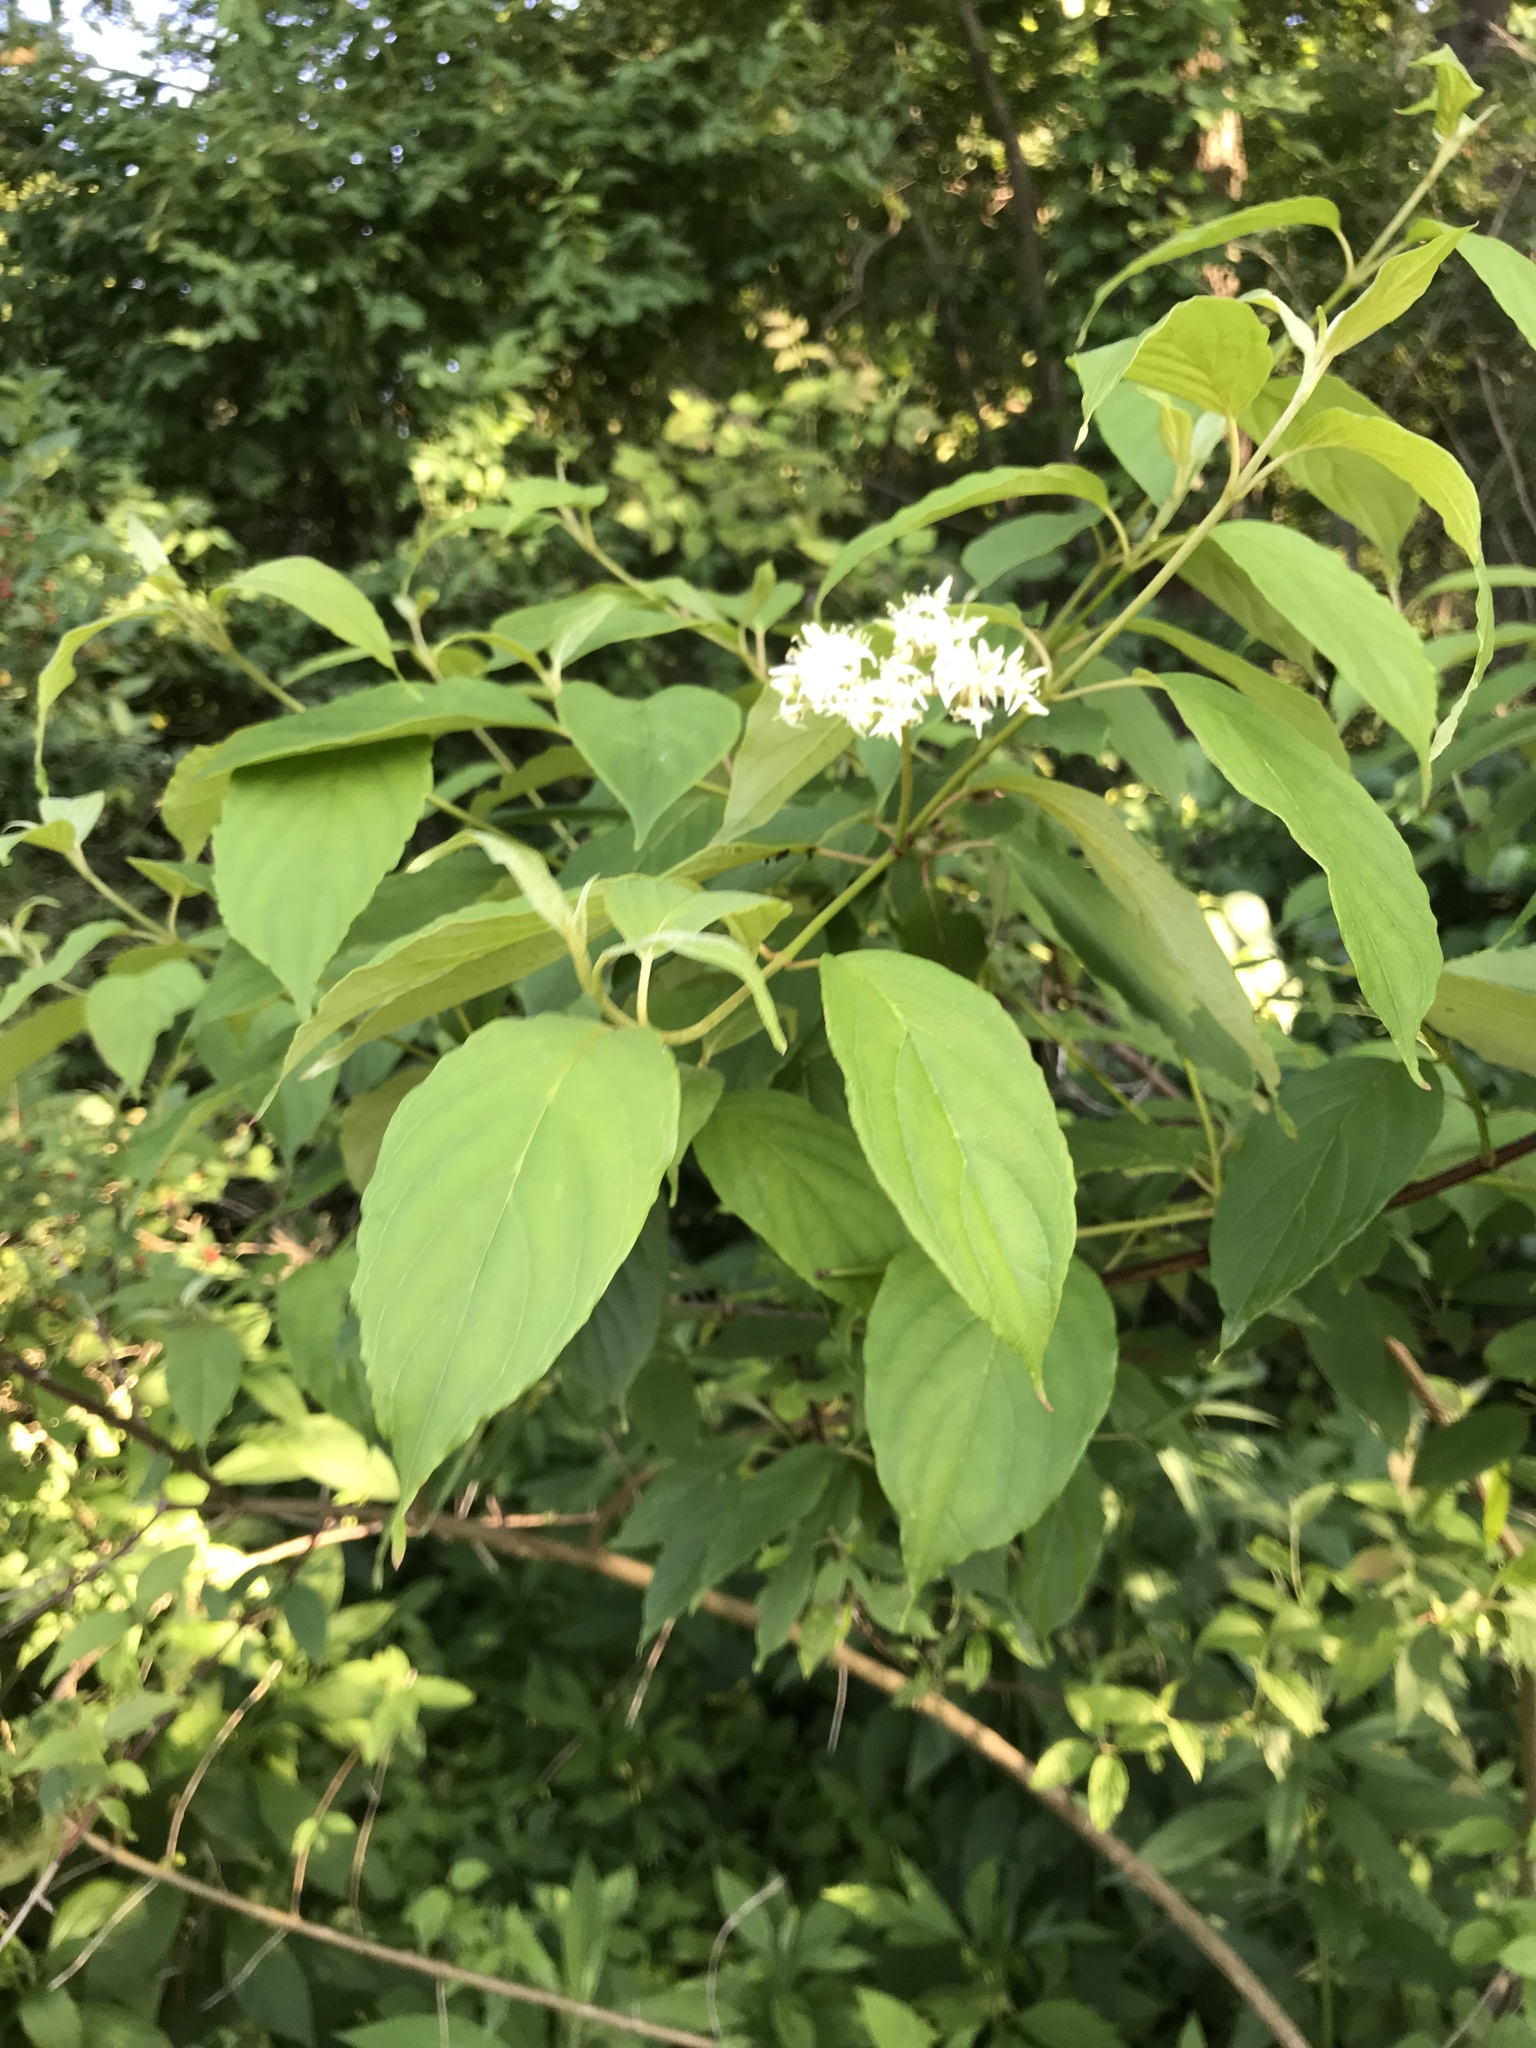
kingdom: Plantae
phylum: Tracheophyta
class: Magnoliopsida
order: Cornales
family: Cornaceae
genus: Cornus
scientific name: Cornus amomum
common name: Silky dogwood
